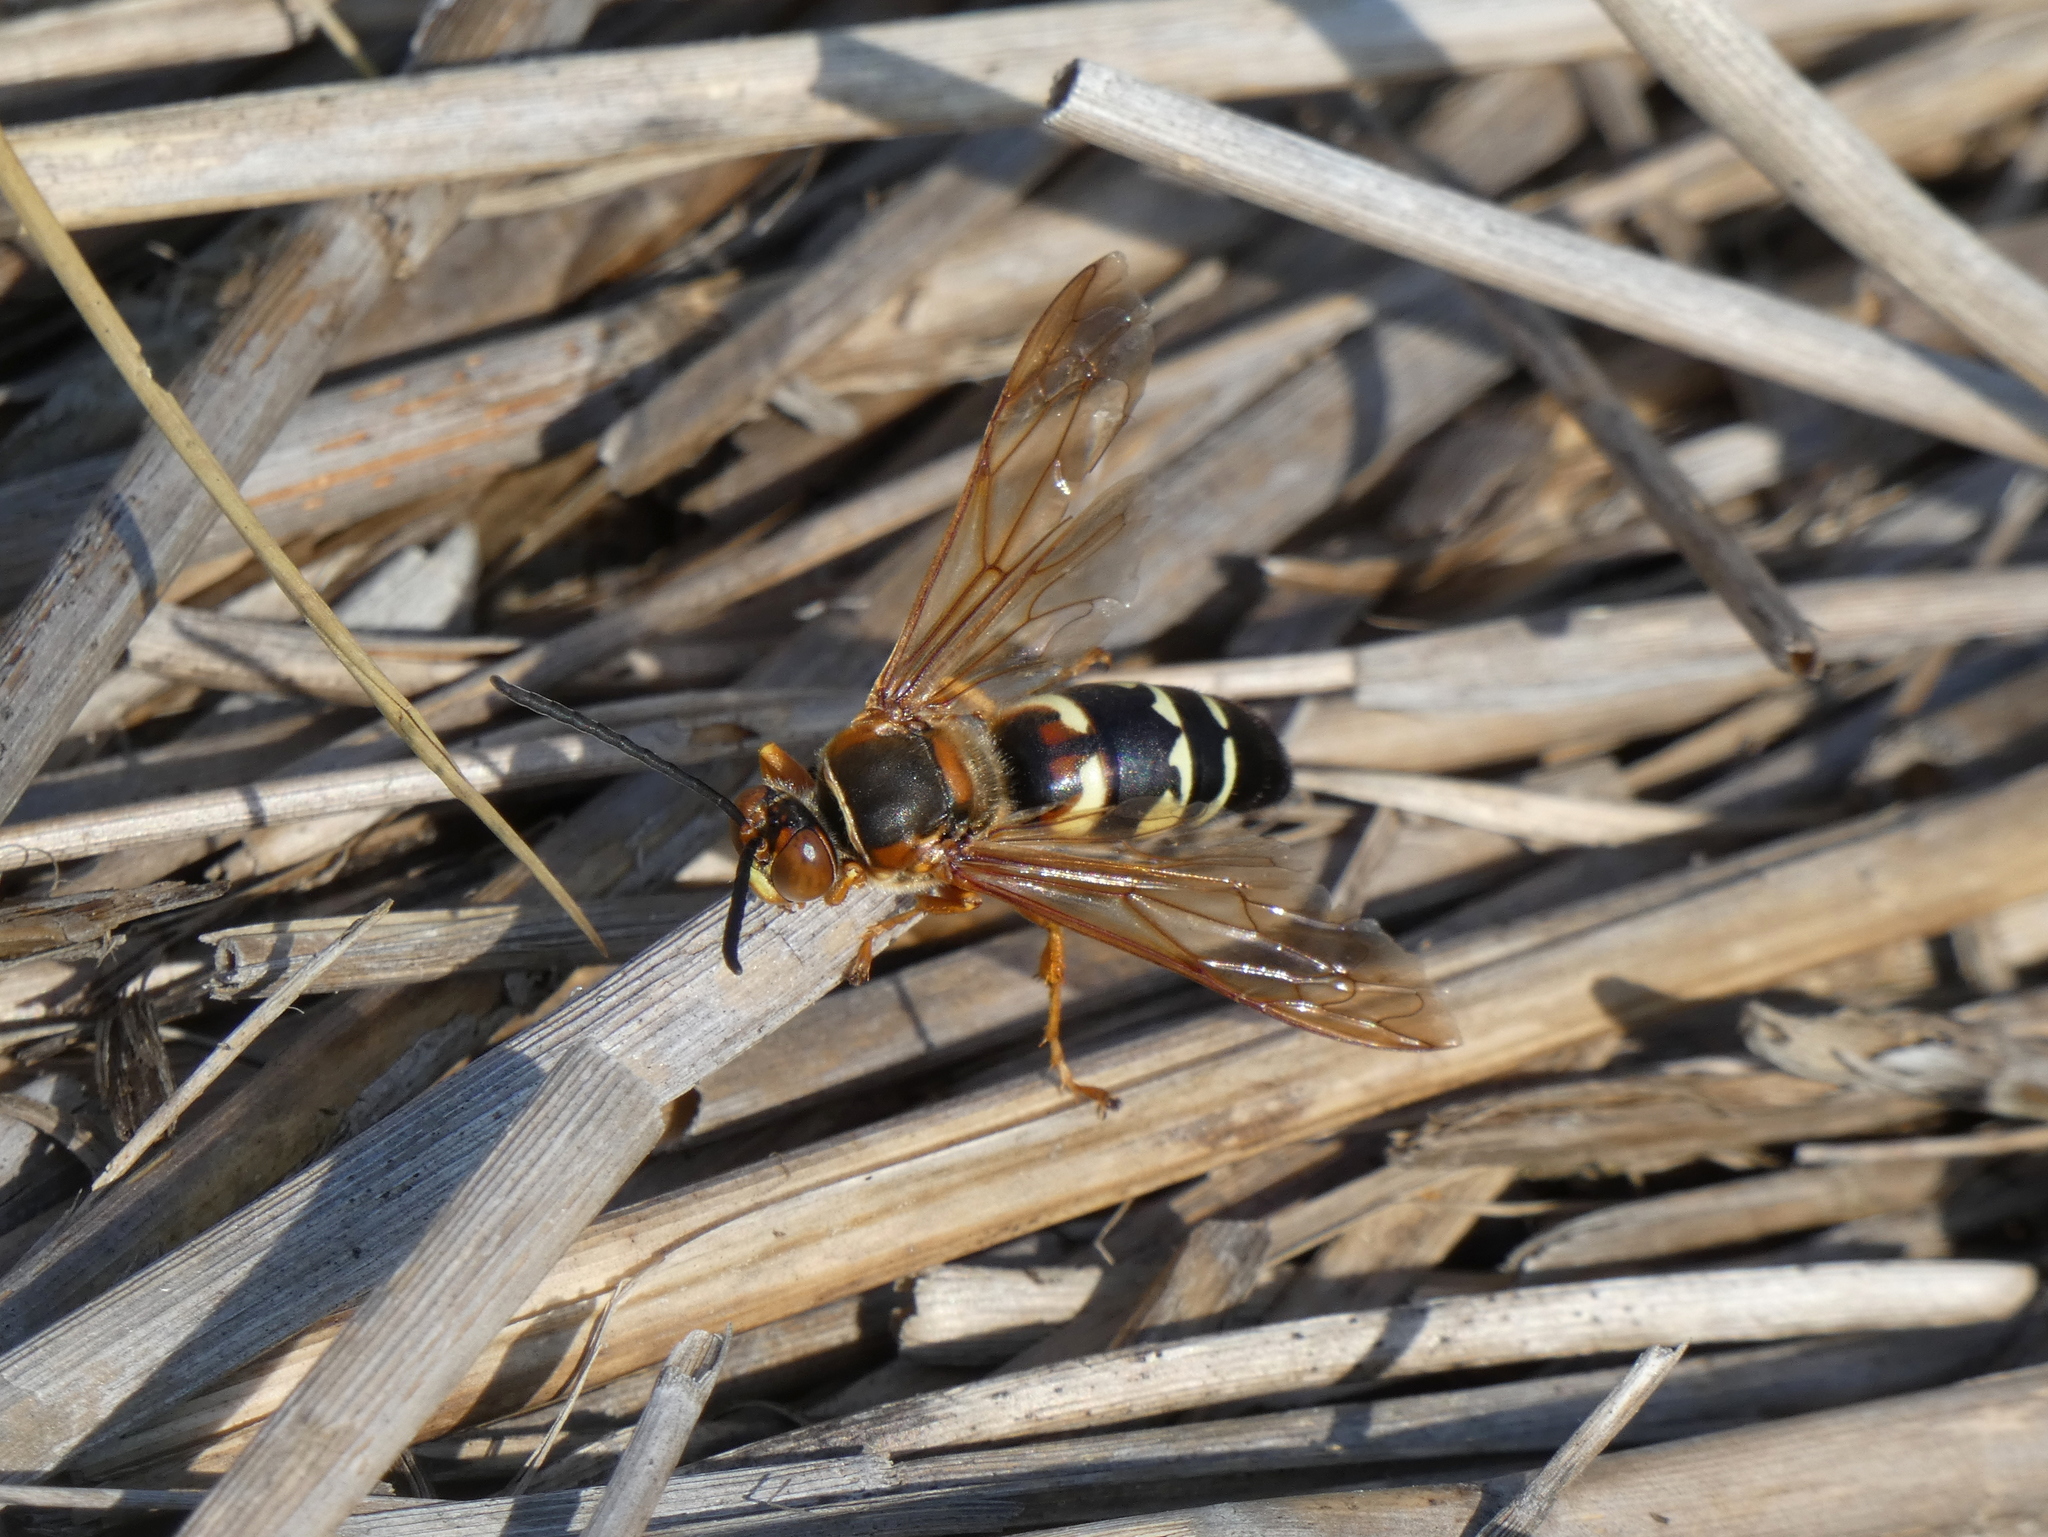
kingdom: Animalia
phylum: Arthropoda
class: Insecta
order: Hymenoptera
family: Crabronidae
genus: Sphecius
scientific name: Sphecius speciosus
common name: Cicada killer
